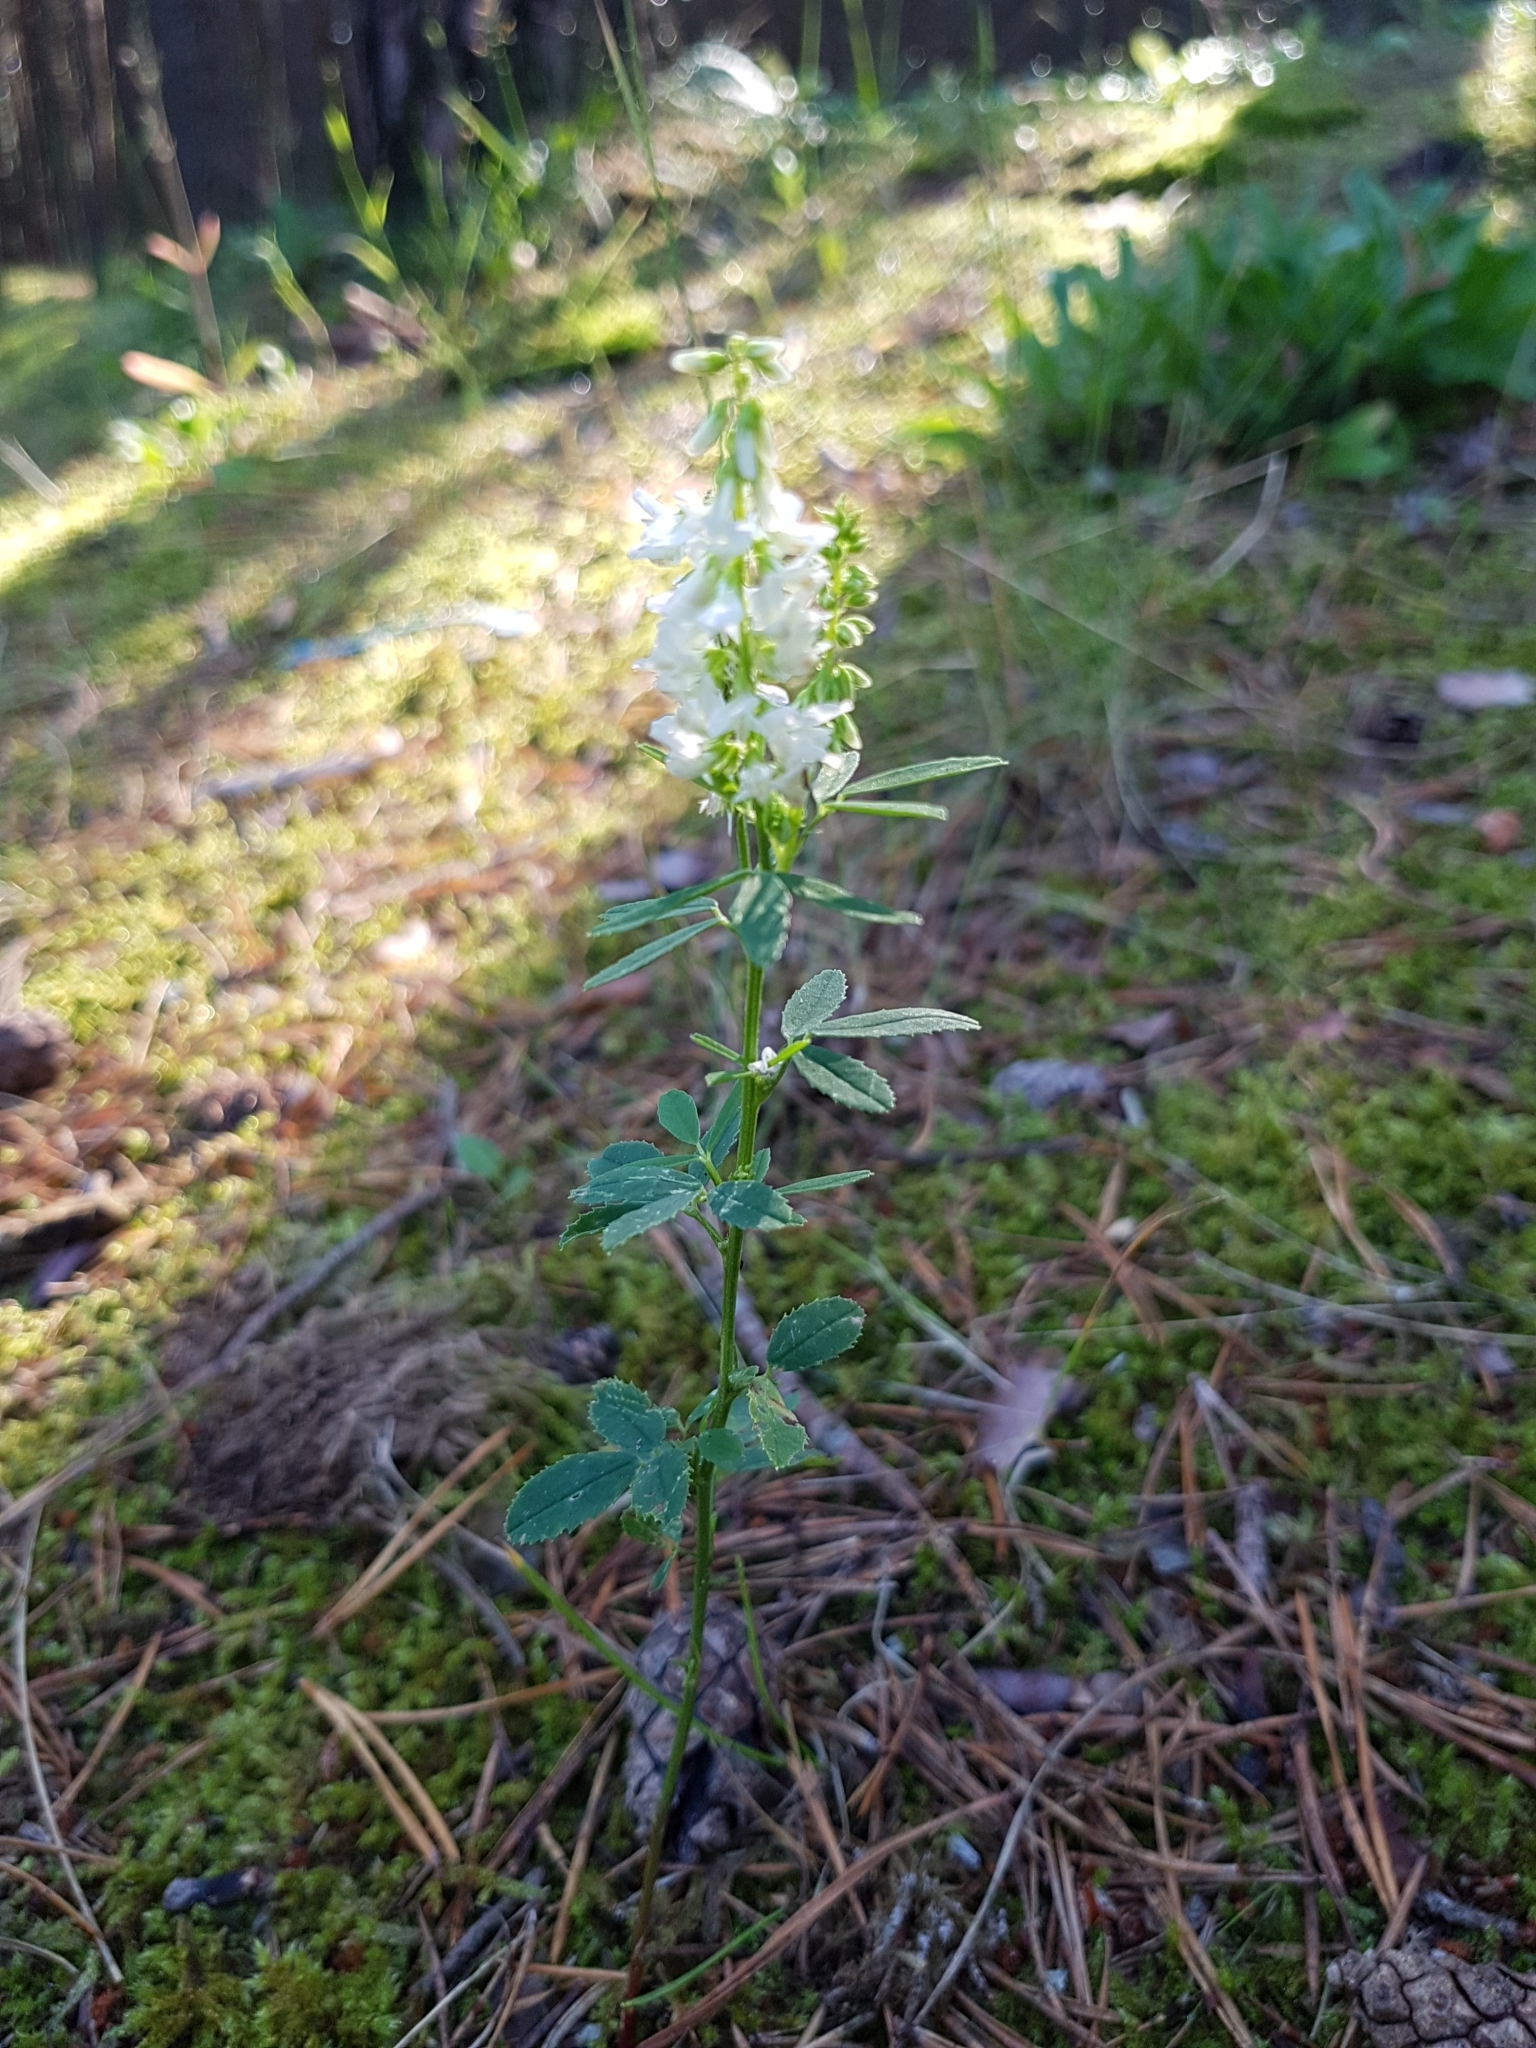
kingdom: Plantae
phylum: Tracheophyta
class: Magnoliopsida
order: Fabales
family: Fabaceae
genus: Melilotus
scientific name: Melilotus albus
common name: White melilot
